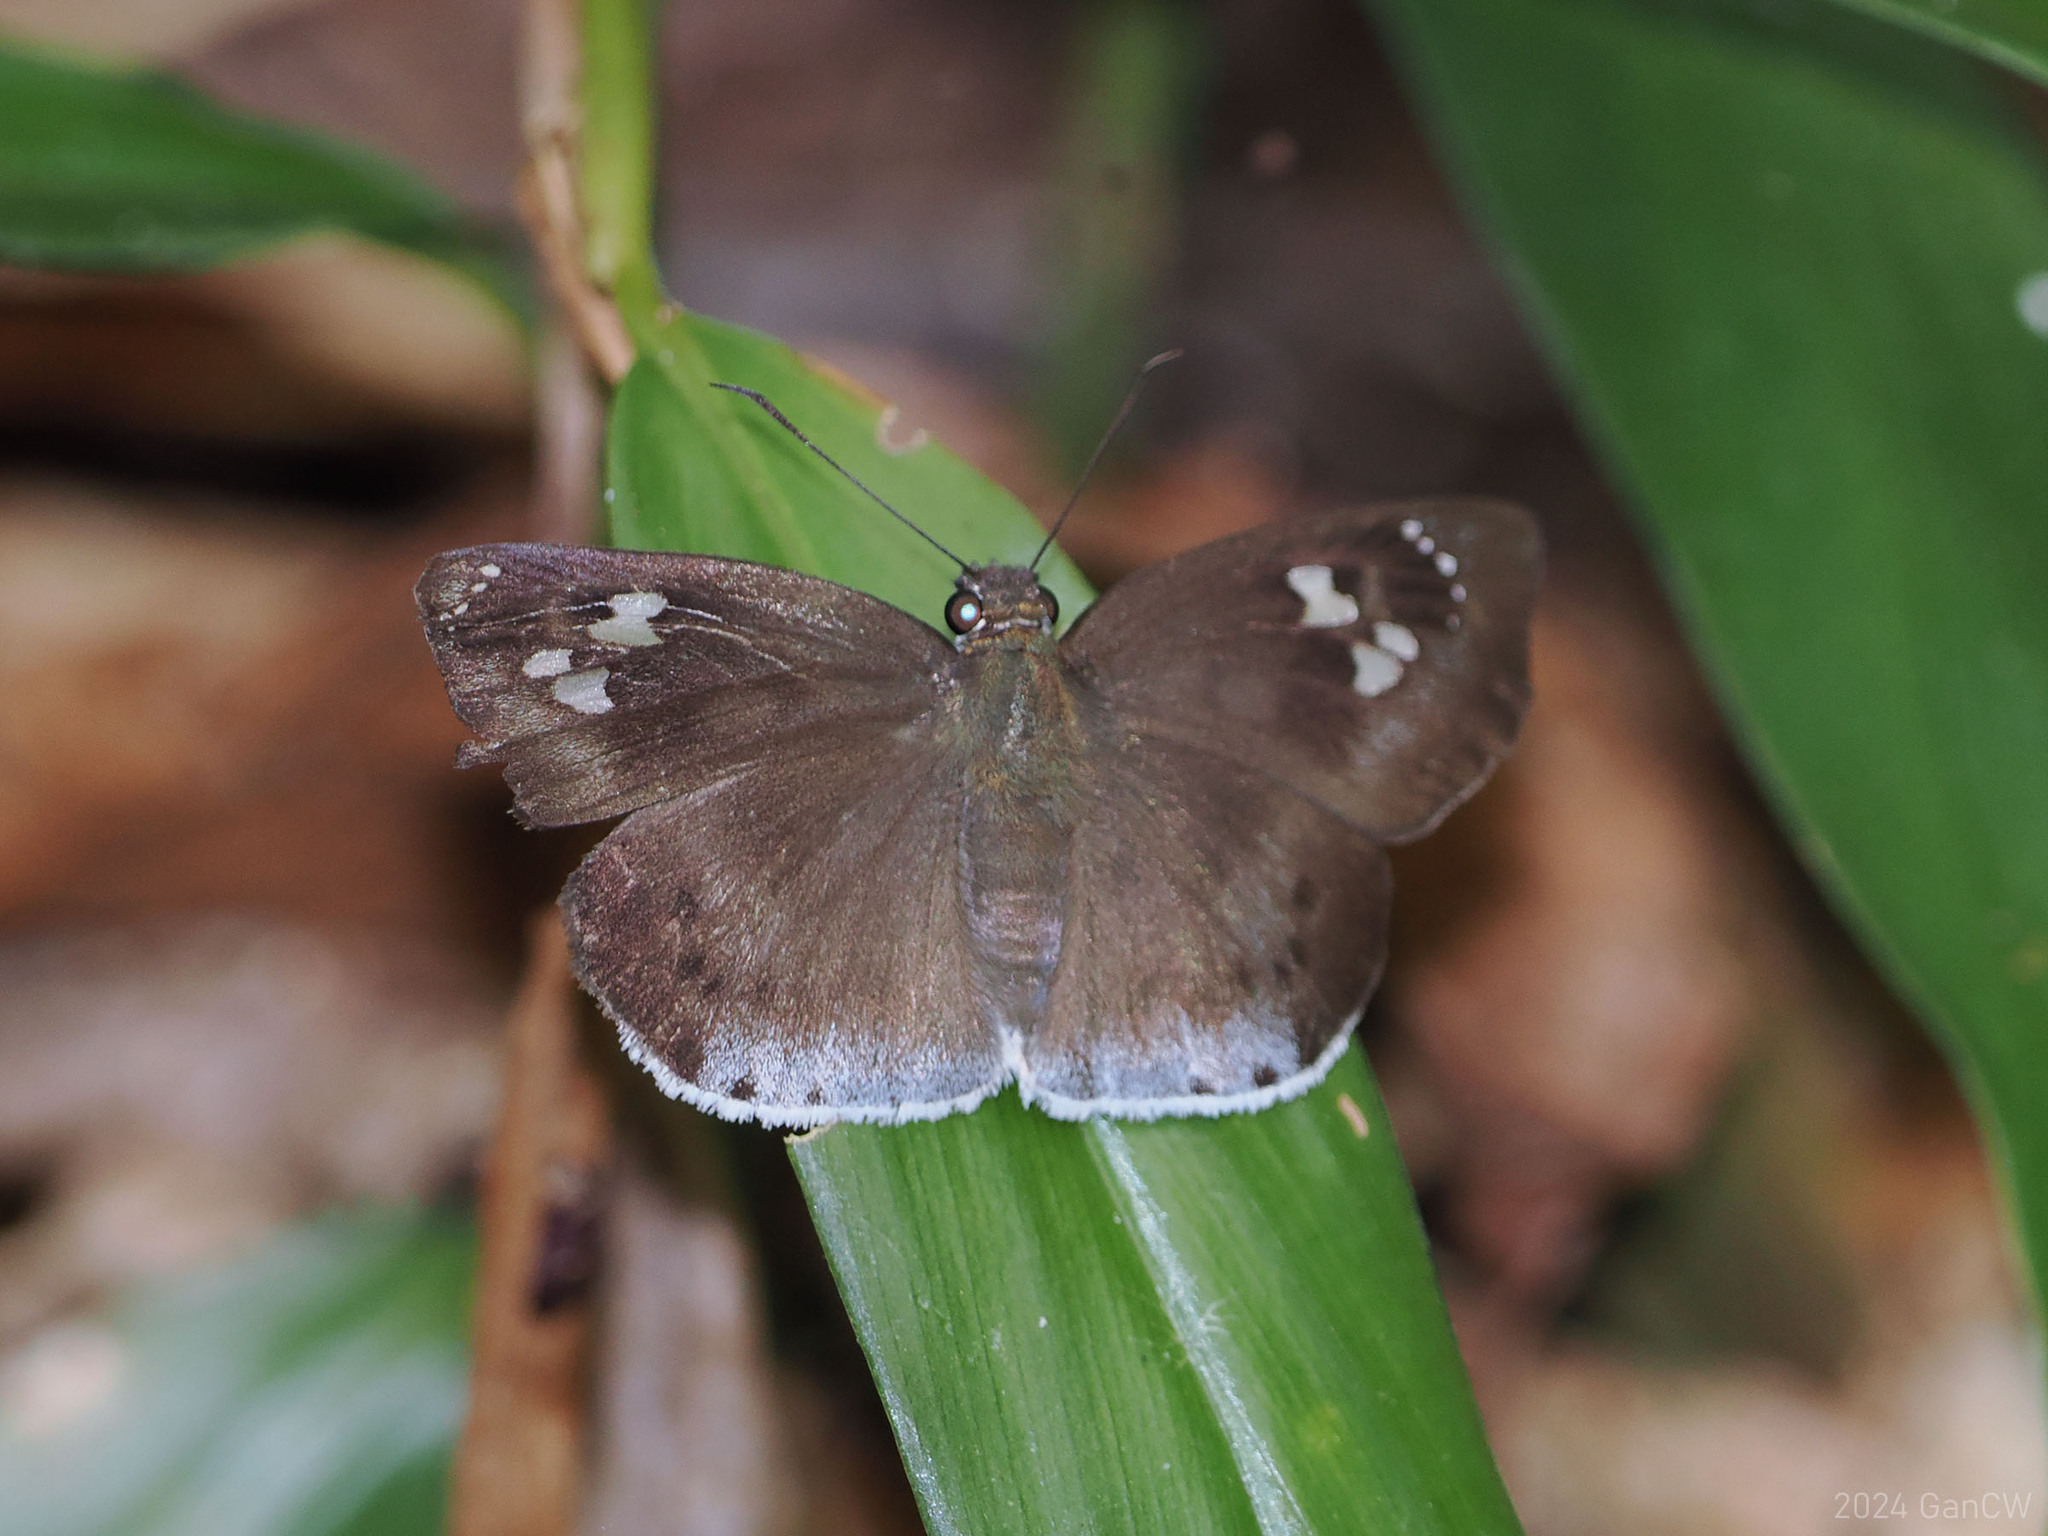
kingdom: Animalia
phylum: Arthropoda
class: Insecta
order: Lepidoptera
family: Hesperiidae
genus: Tagiades
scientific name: Tagiades japetus
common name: Pied flat
